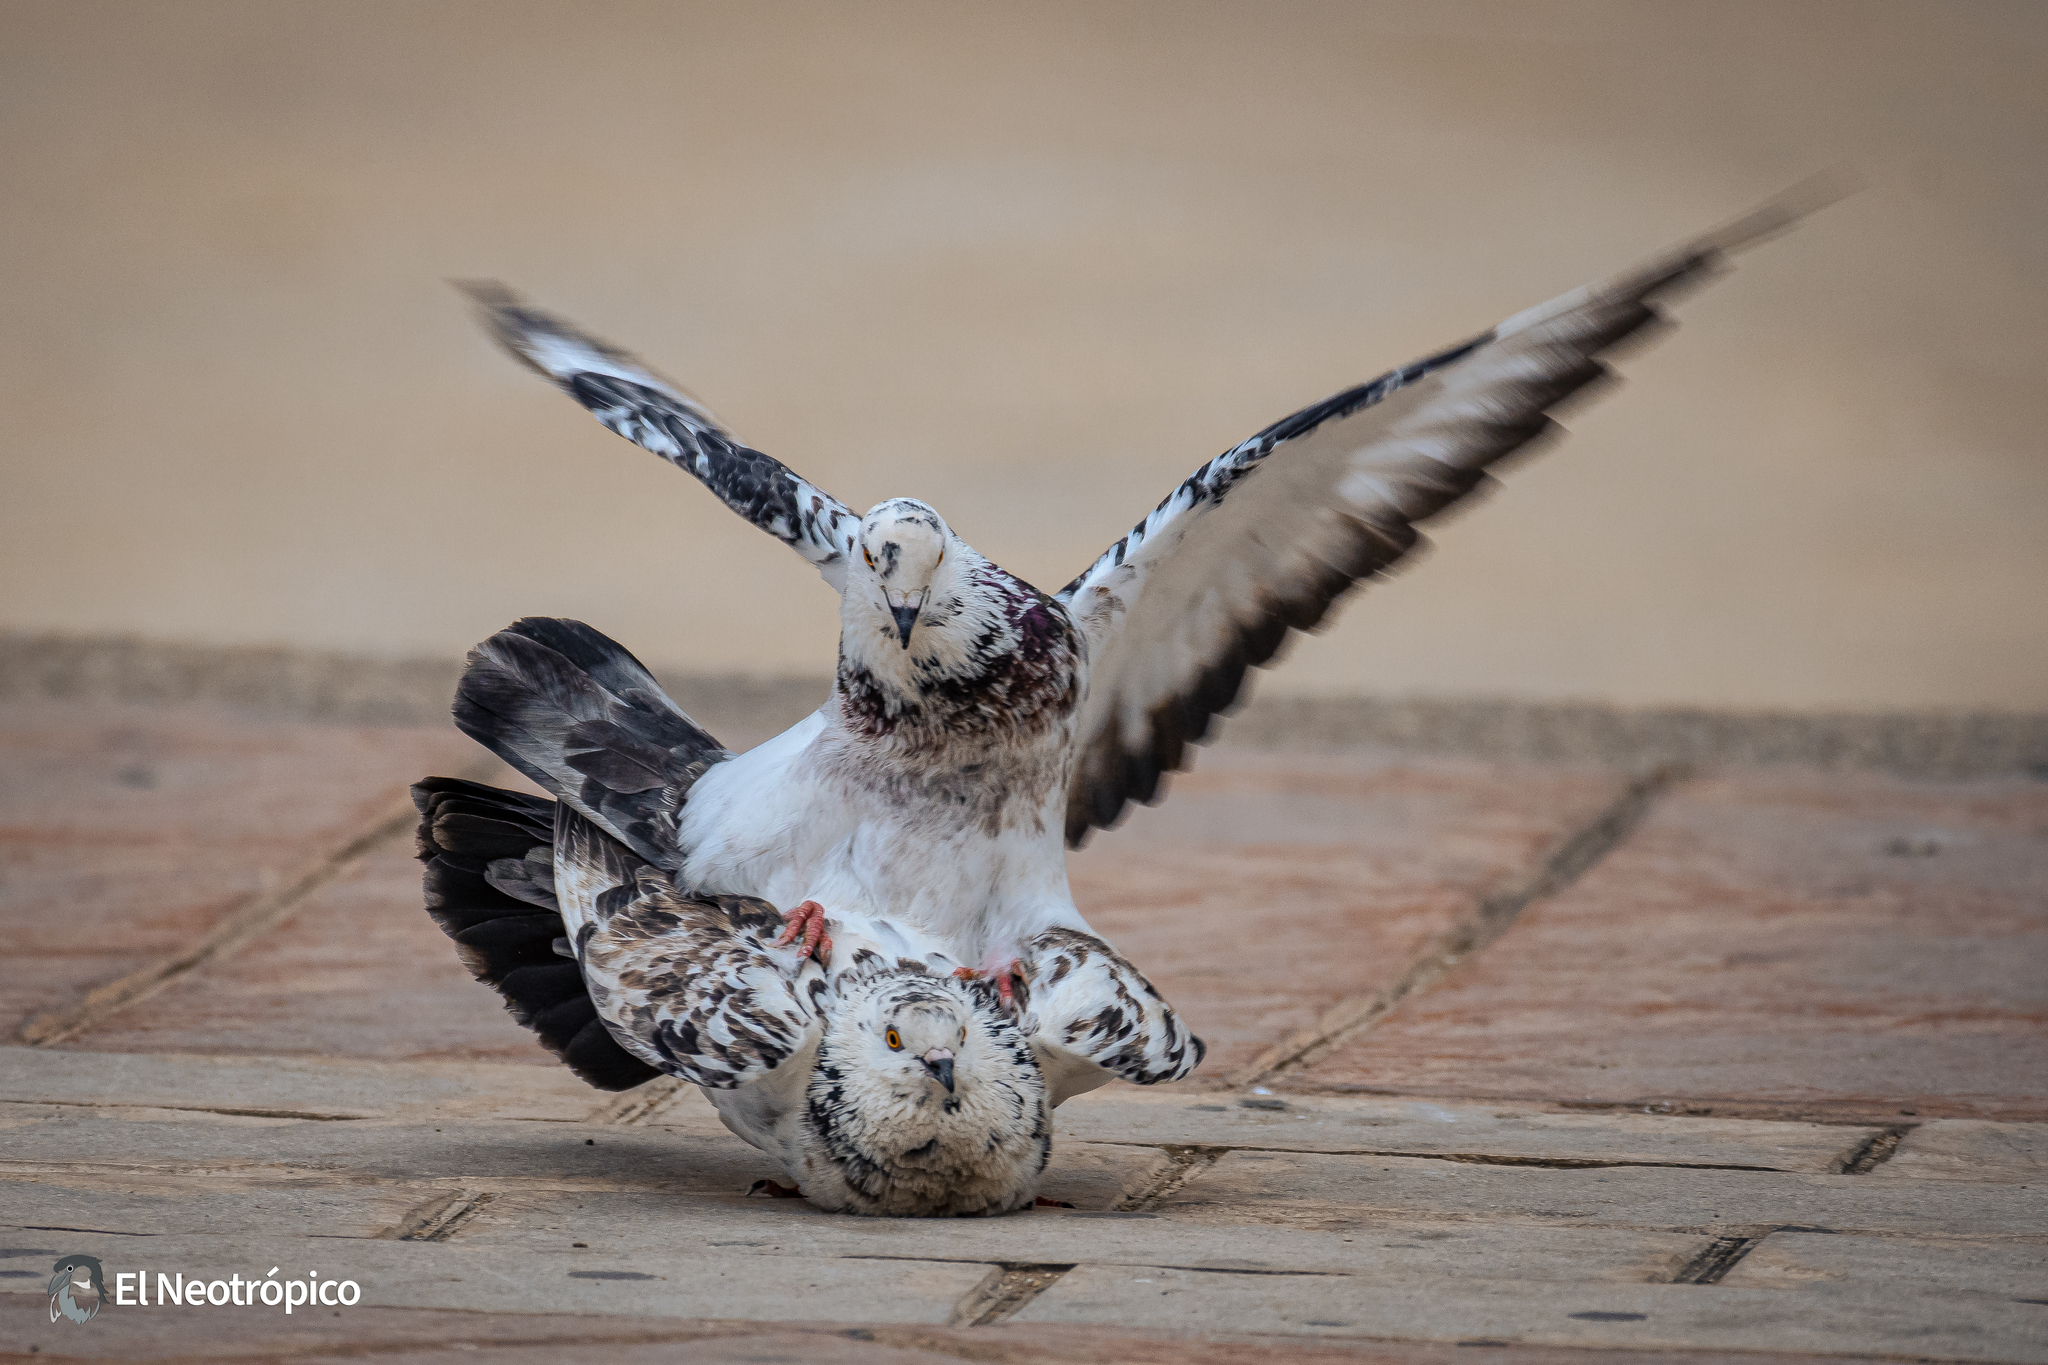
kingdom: Animalia
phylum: Chordata
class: Aves
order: Columbiformes
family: Columbidae
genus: Columba
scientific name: Columba livia
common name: Rock pigeon
